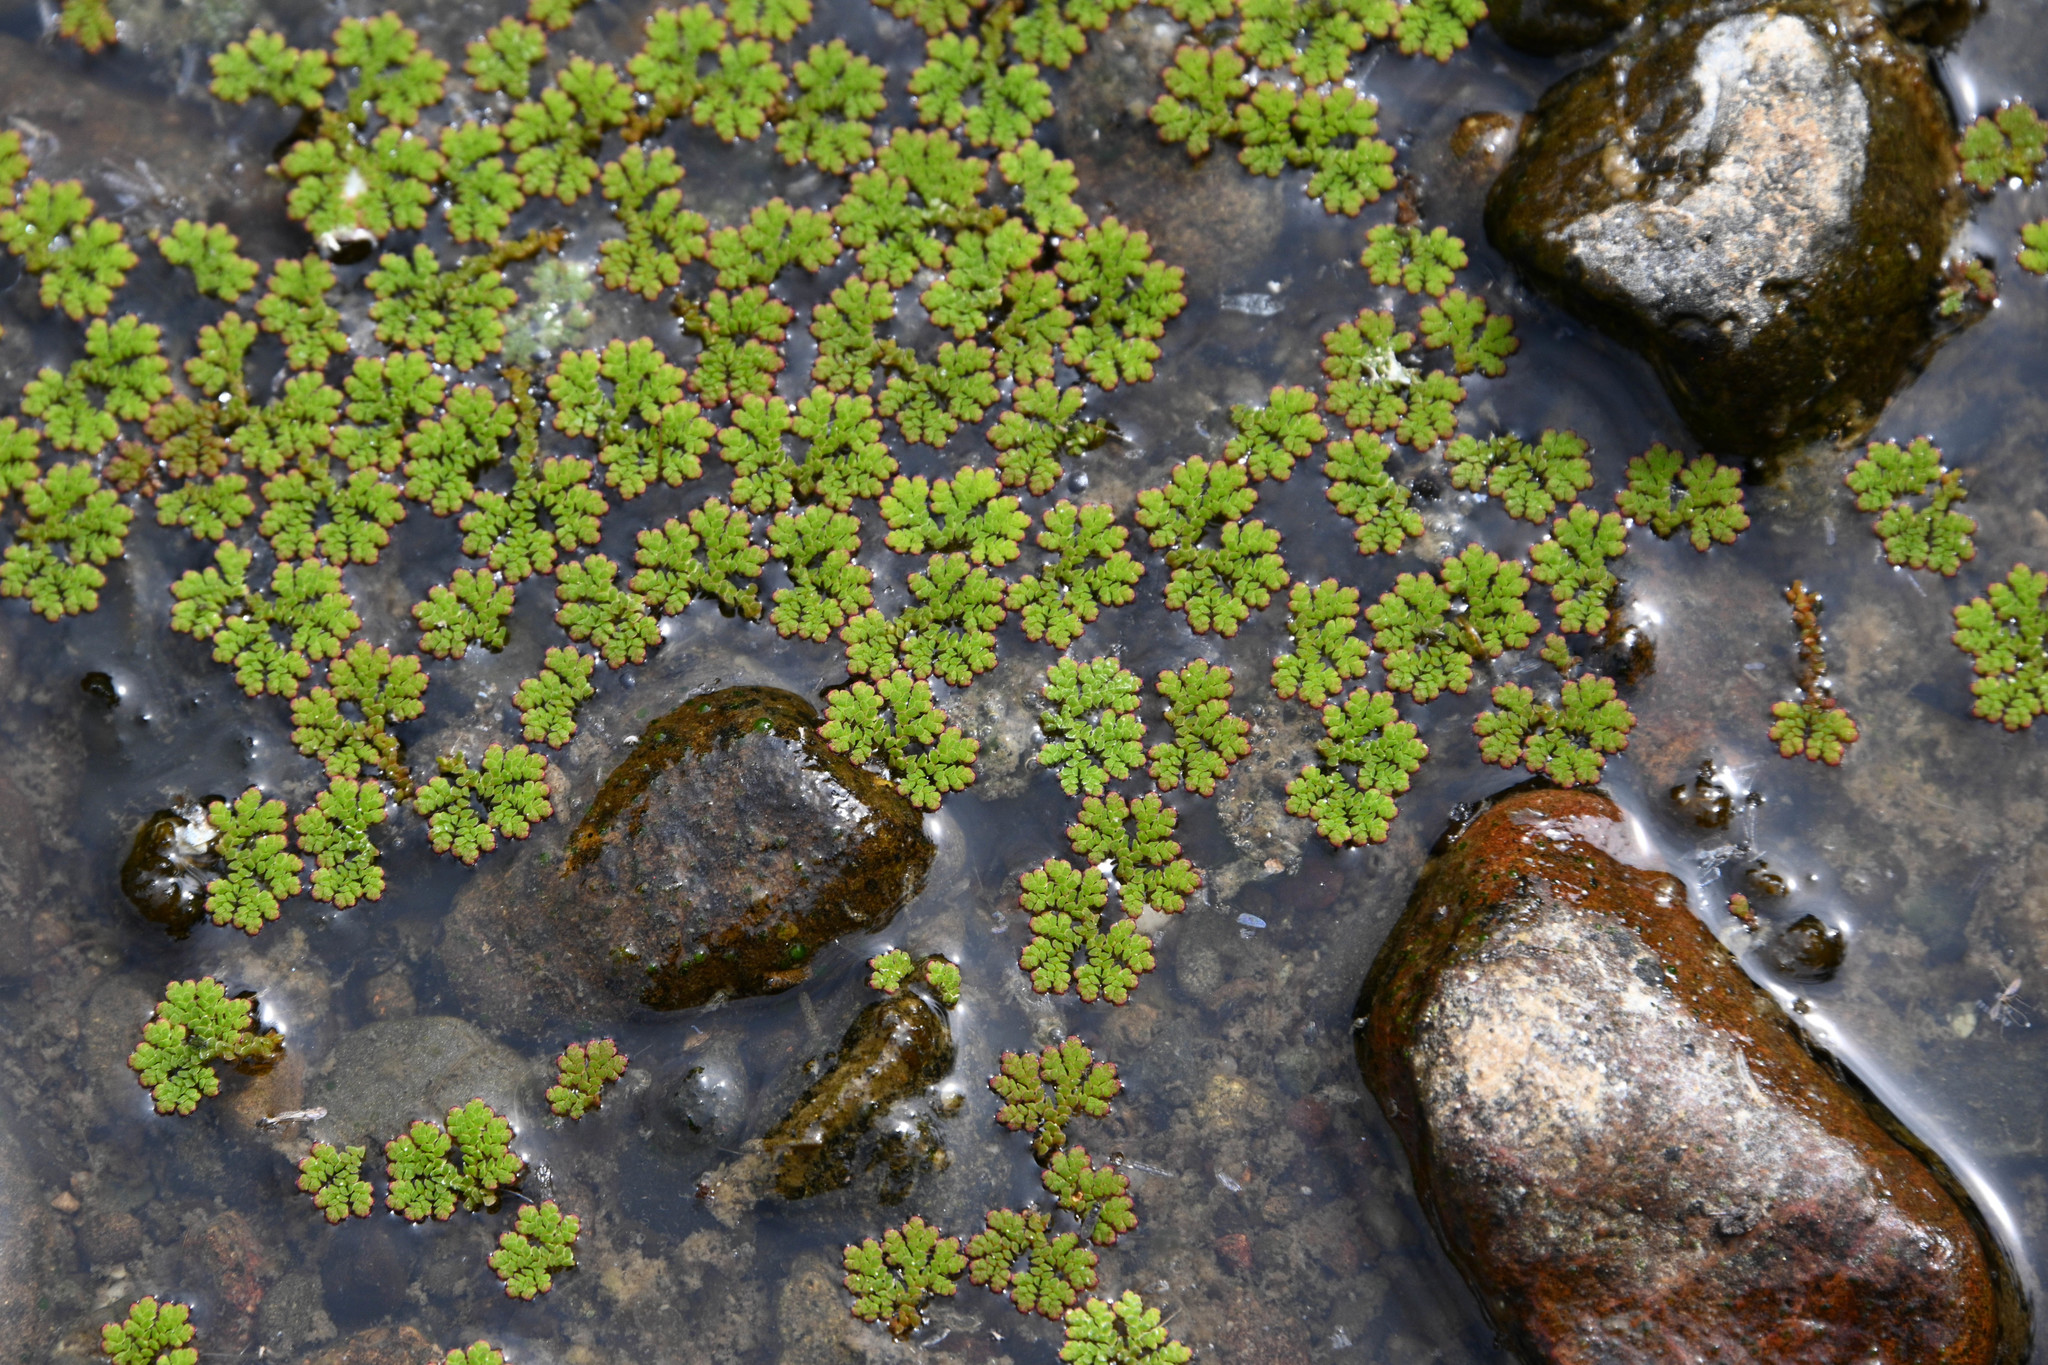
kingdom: Plantae
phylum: Tracheophyta
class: Polypodiopsida
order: Salviniales
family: Salviniaceae
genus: Azolla
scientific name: Azolla filiculoides
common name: Water fern
